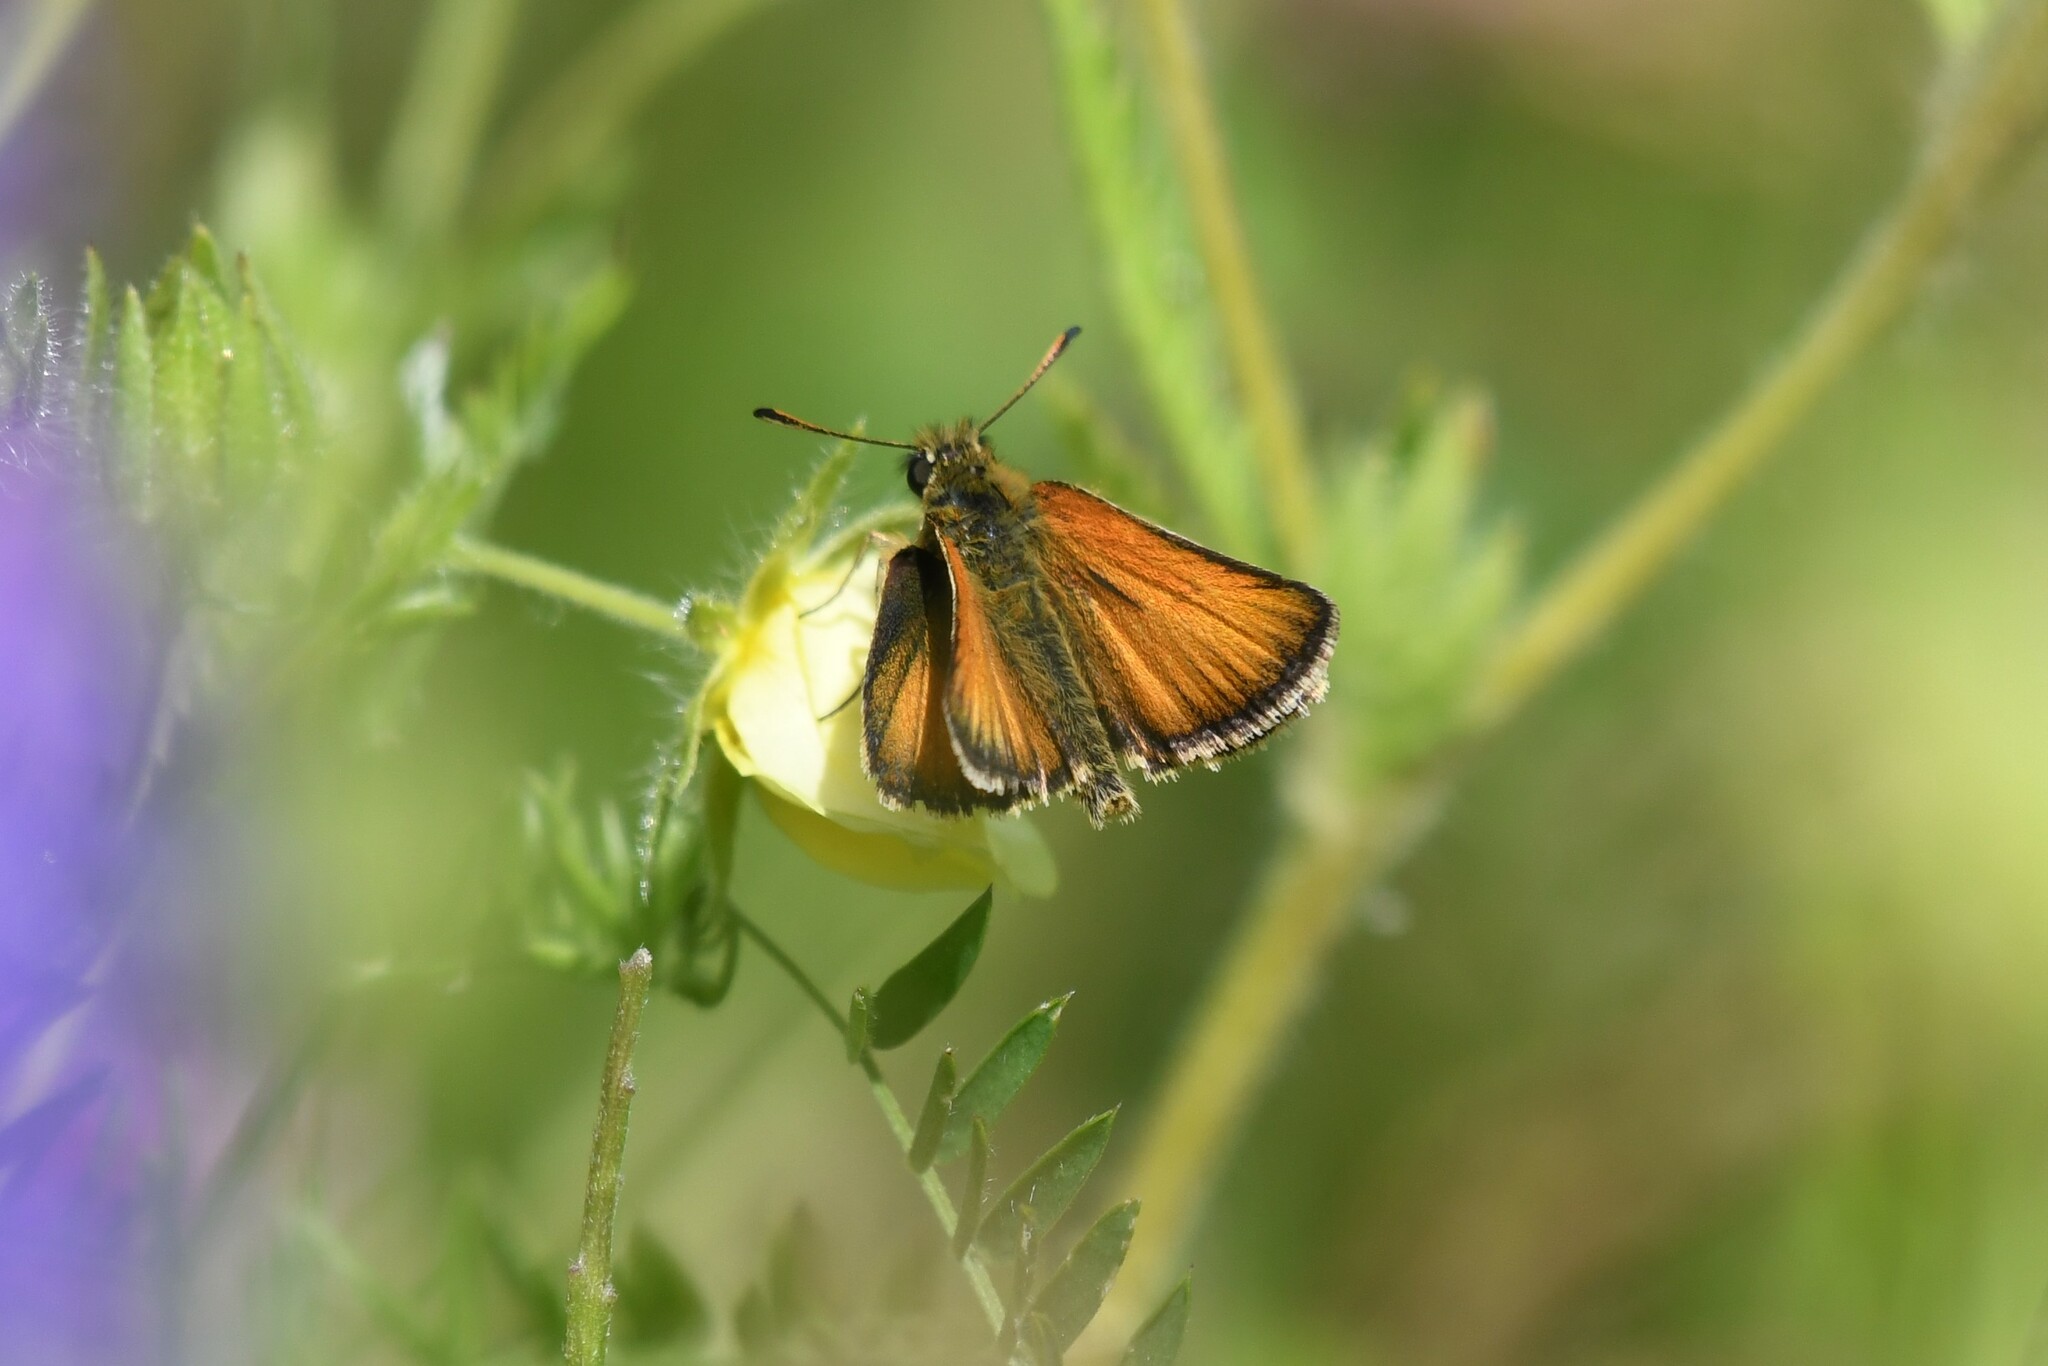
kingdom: Animalia
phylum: Arthropoda
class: Insecta
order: Lepidoptera
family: Hesperiidae
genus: Thymelicus
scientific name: Thymelicus lineola
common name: Essex skipper
